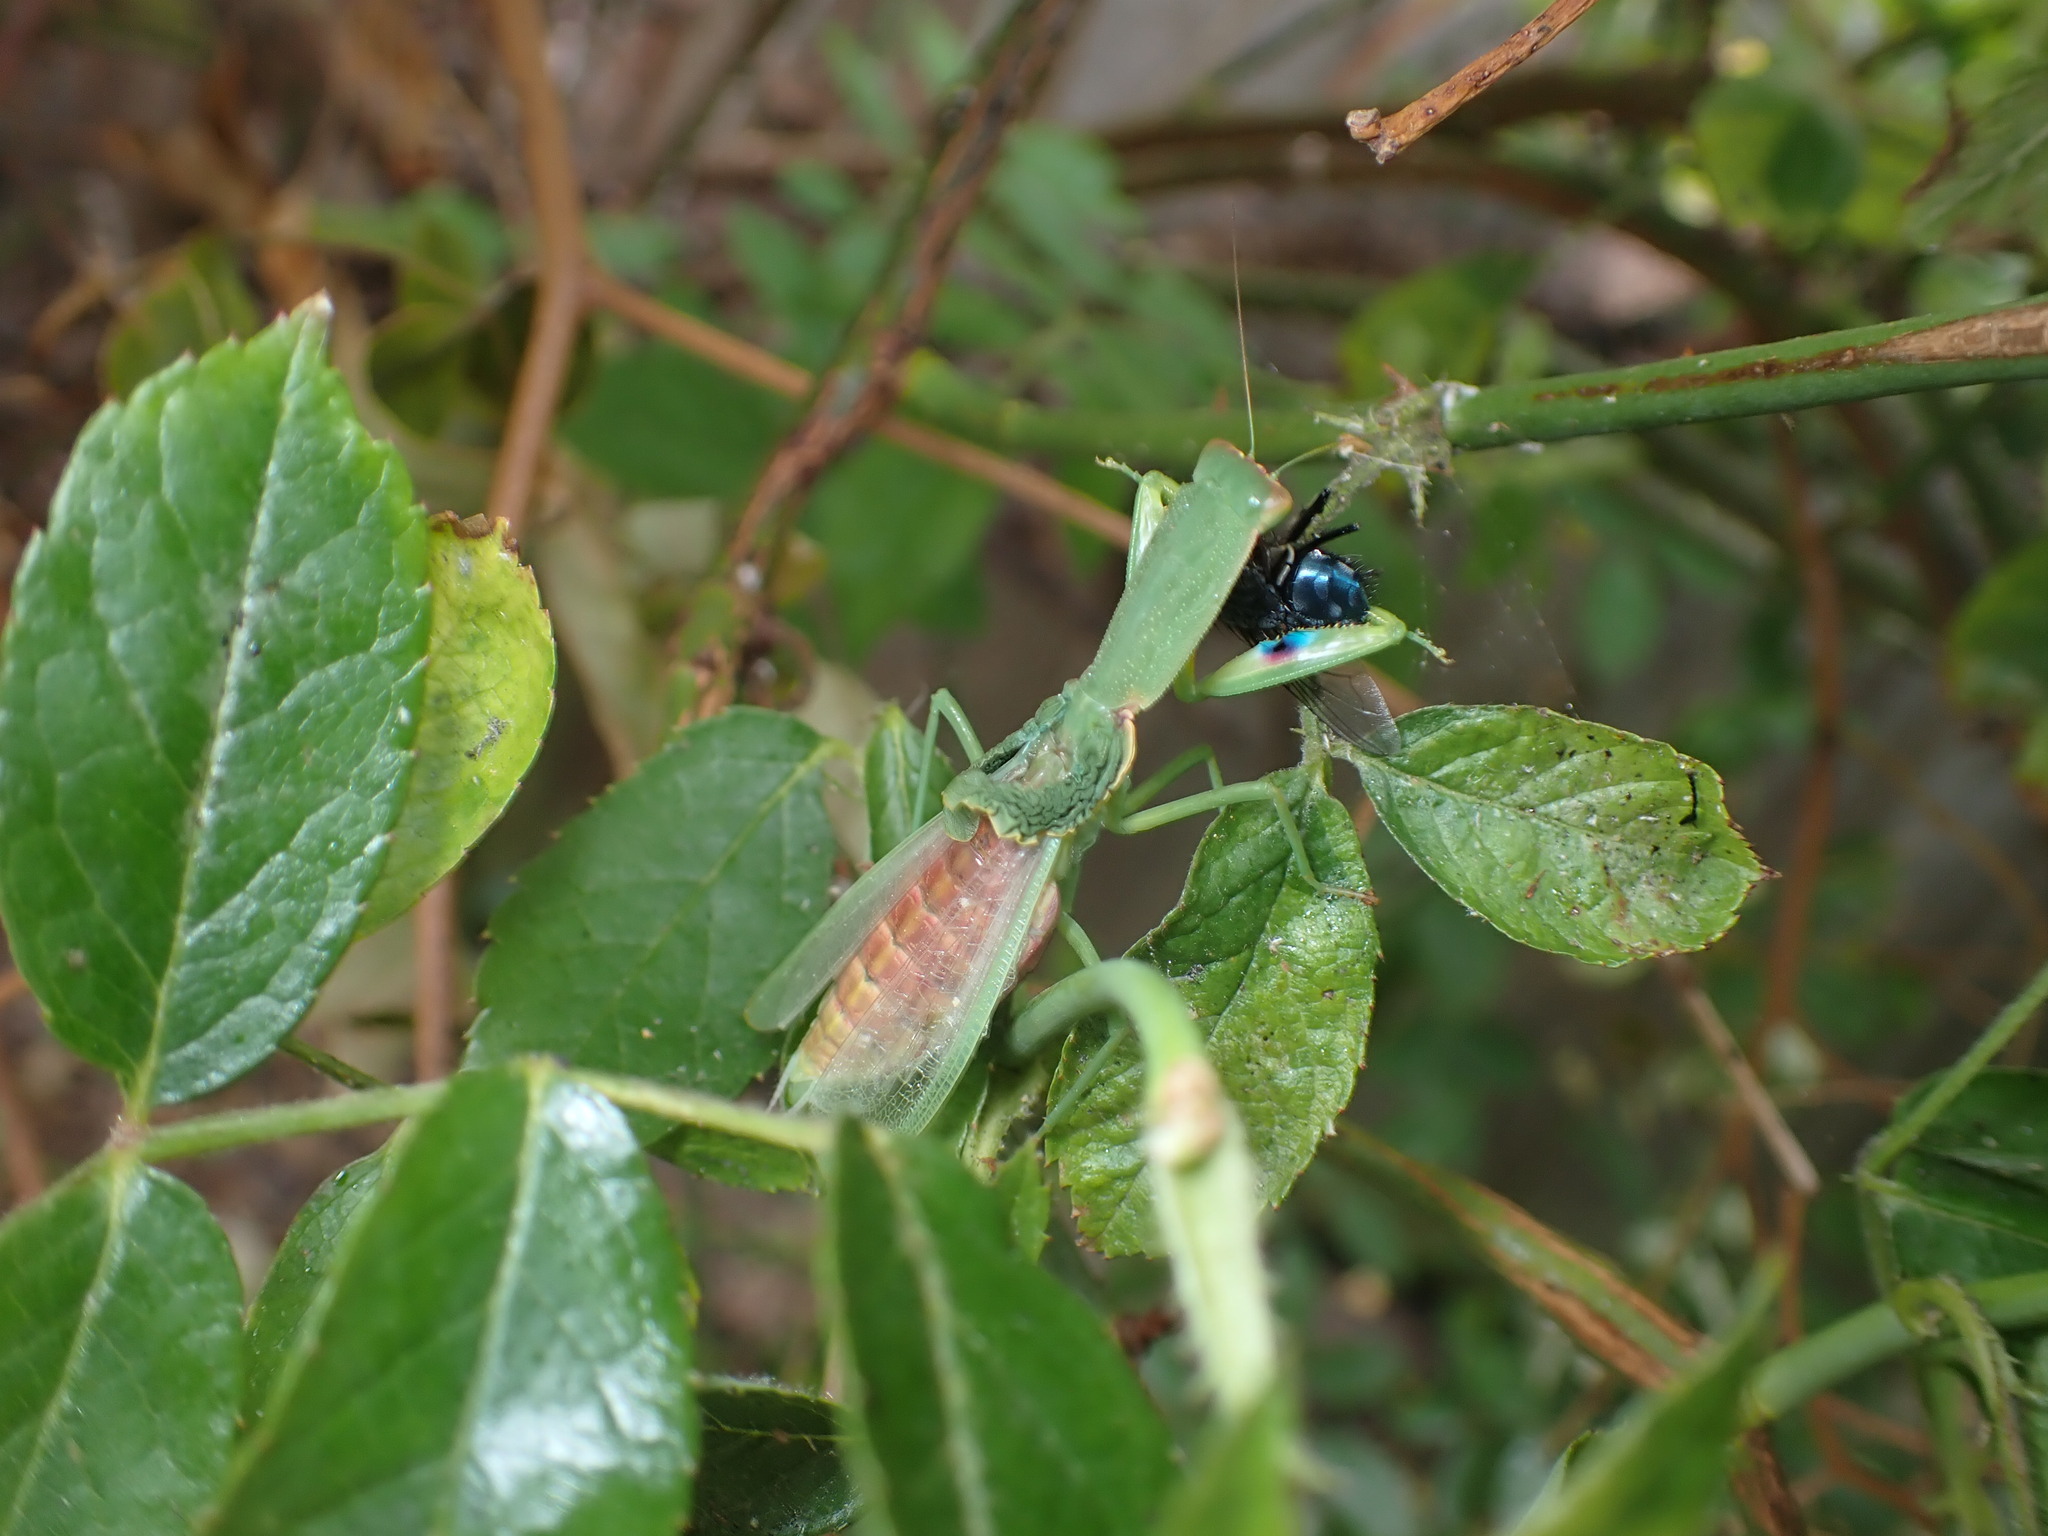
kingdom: Animalia
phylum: Arthropoda
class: Insecta
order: Mantodea
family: Mantidae
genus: Orthodera
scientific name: Orthodera novaezealandiae
